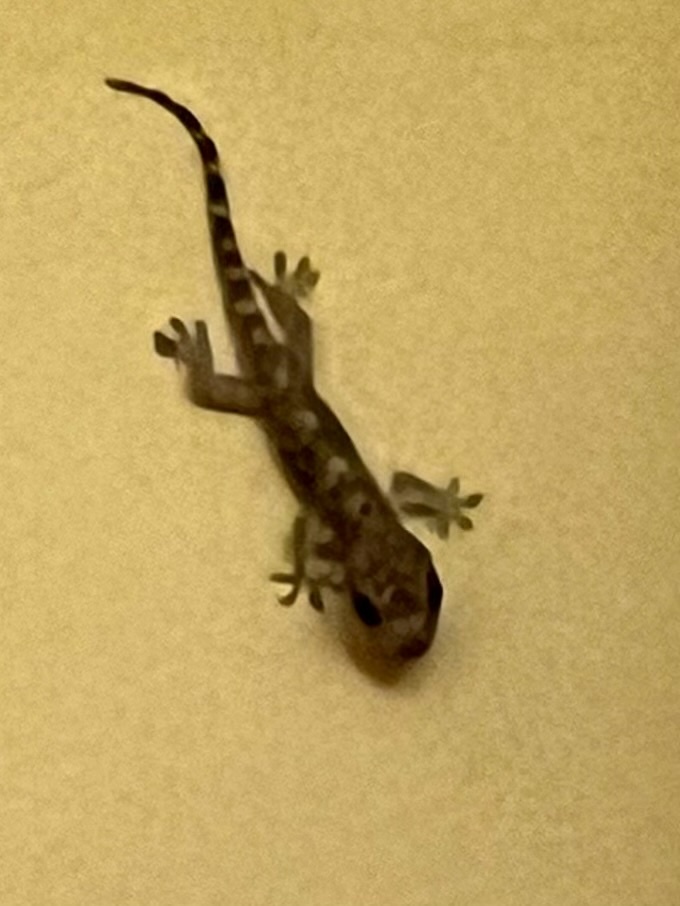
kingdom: Animalia
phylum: Chordata
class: Squamata
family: Gekkonidae
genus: Hemidactylus
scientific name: Hemidactylus mabouia
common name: House gecko
